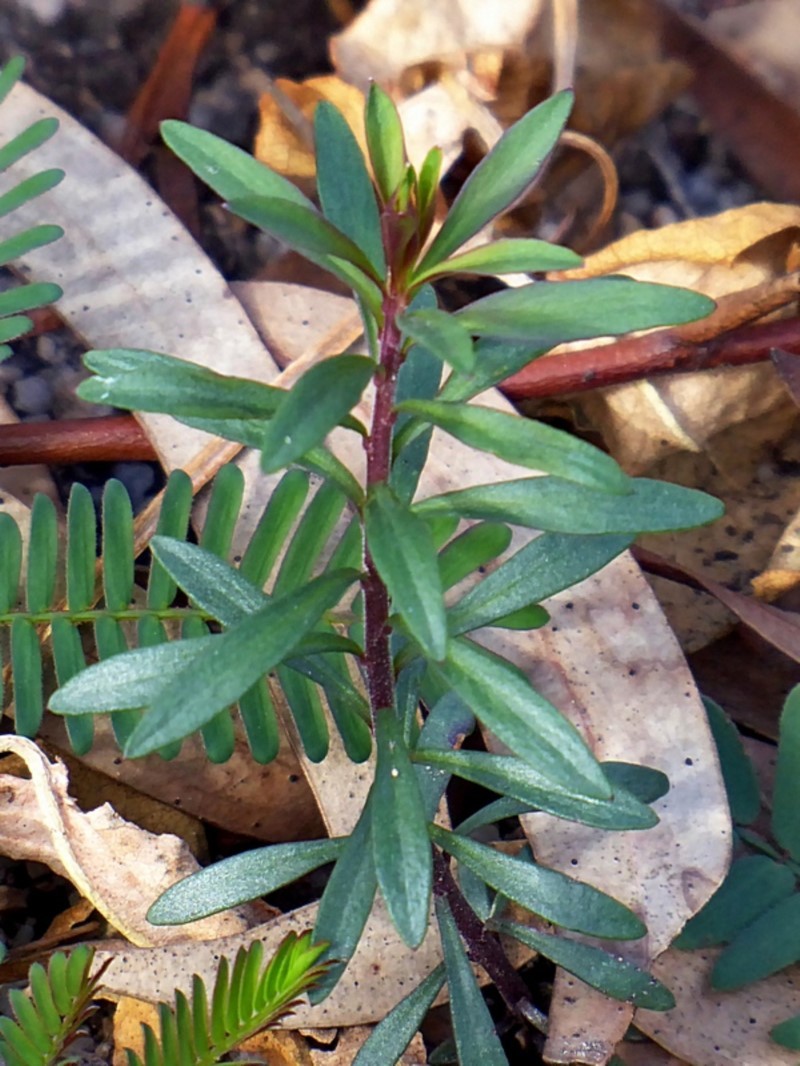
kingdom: Plantae
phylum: Tracheophyta
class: Magnoliopsida
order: Apiales
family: Apiaceae
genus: Platysace
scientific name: Platysace lanceolata
